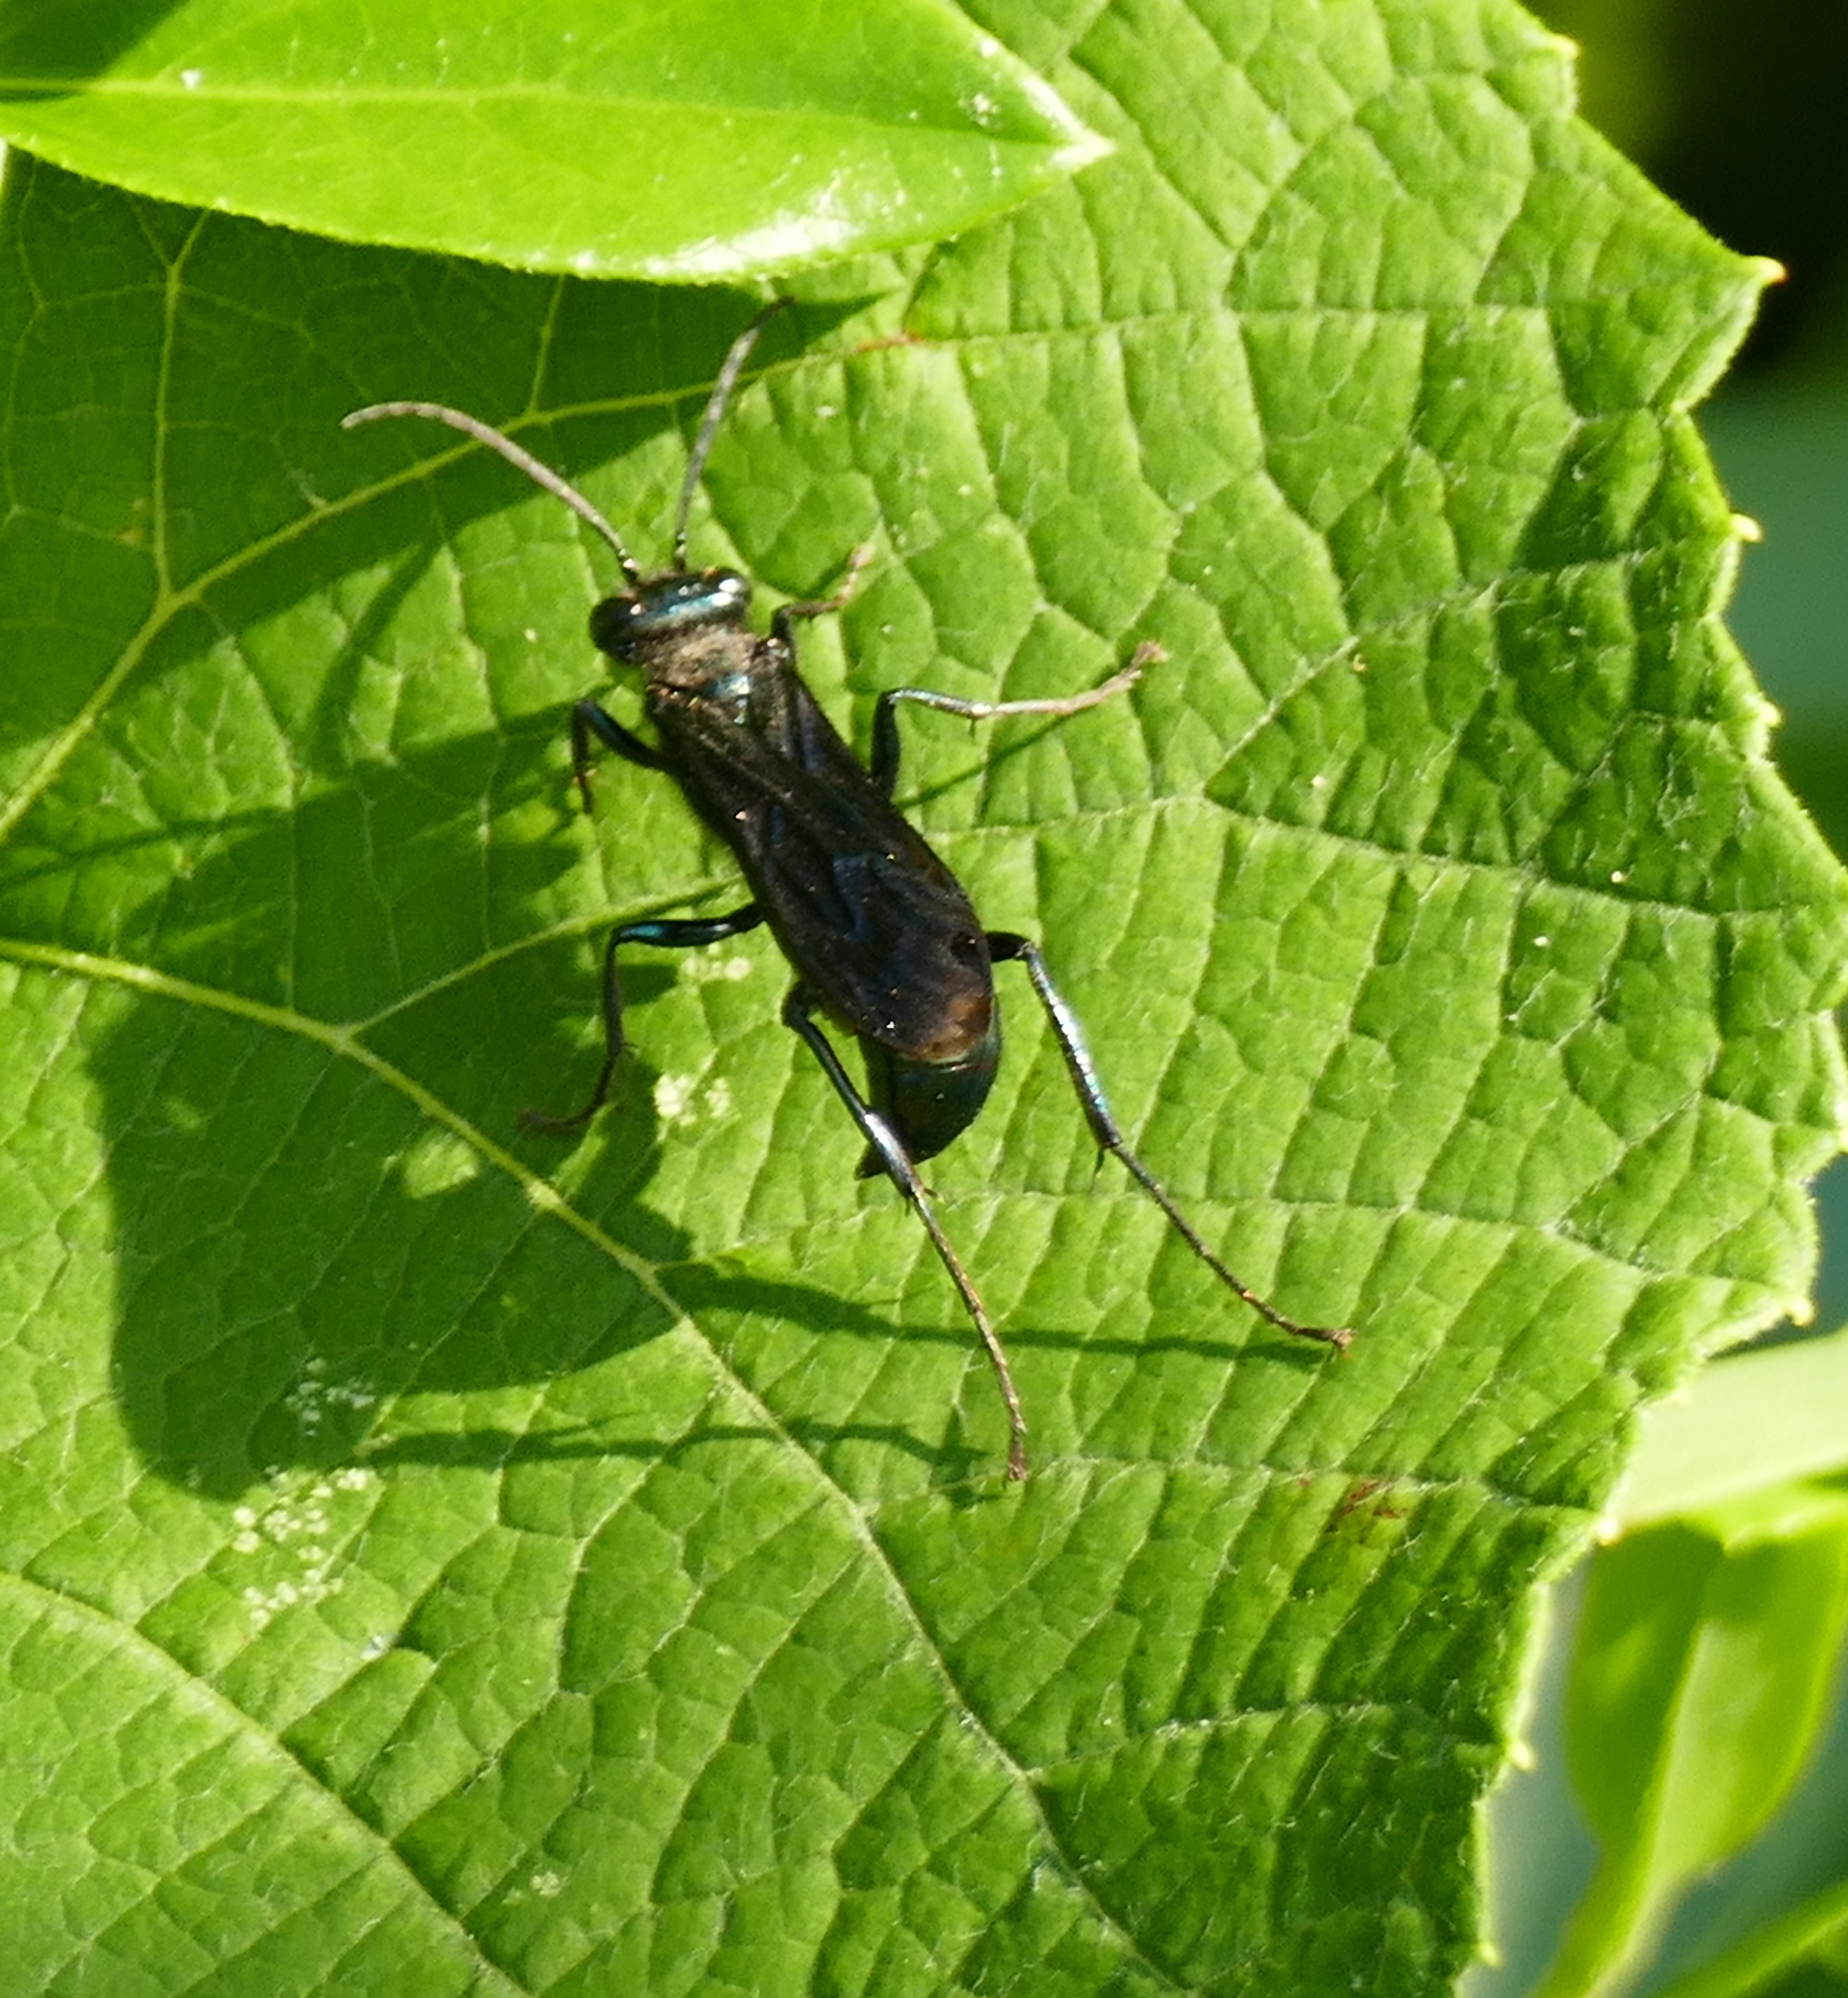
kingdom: Animalia
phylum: Arthropoda
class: Insecta
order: Hymenoptera
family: Sphecidae
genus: Chalybion
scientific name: Chalybion californicum
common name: Mud dauber
